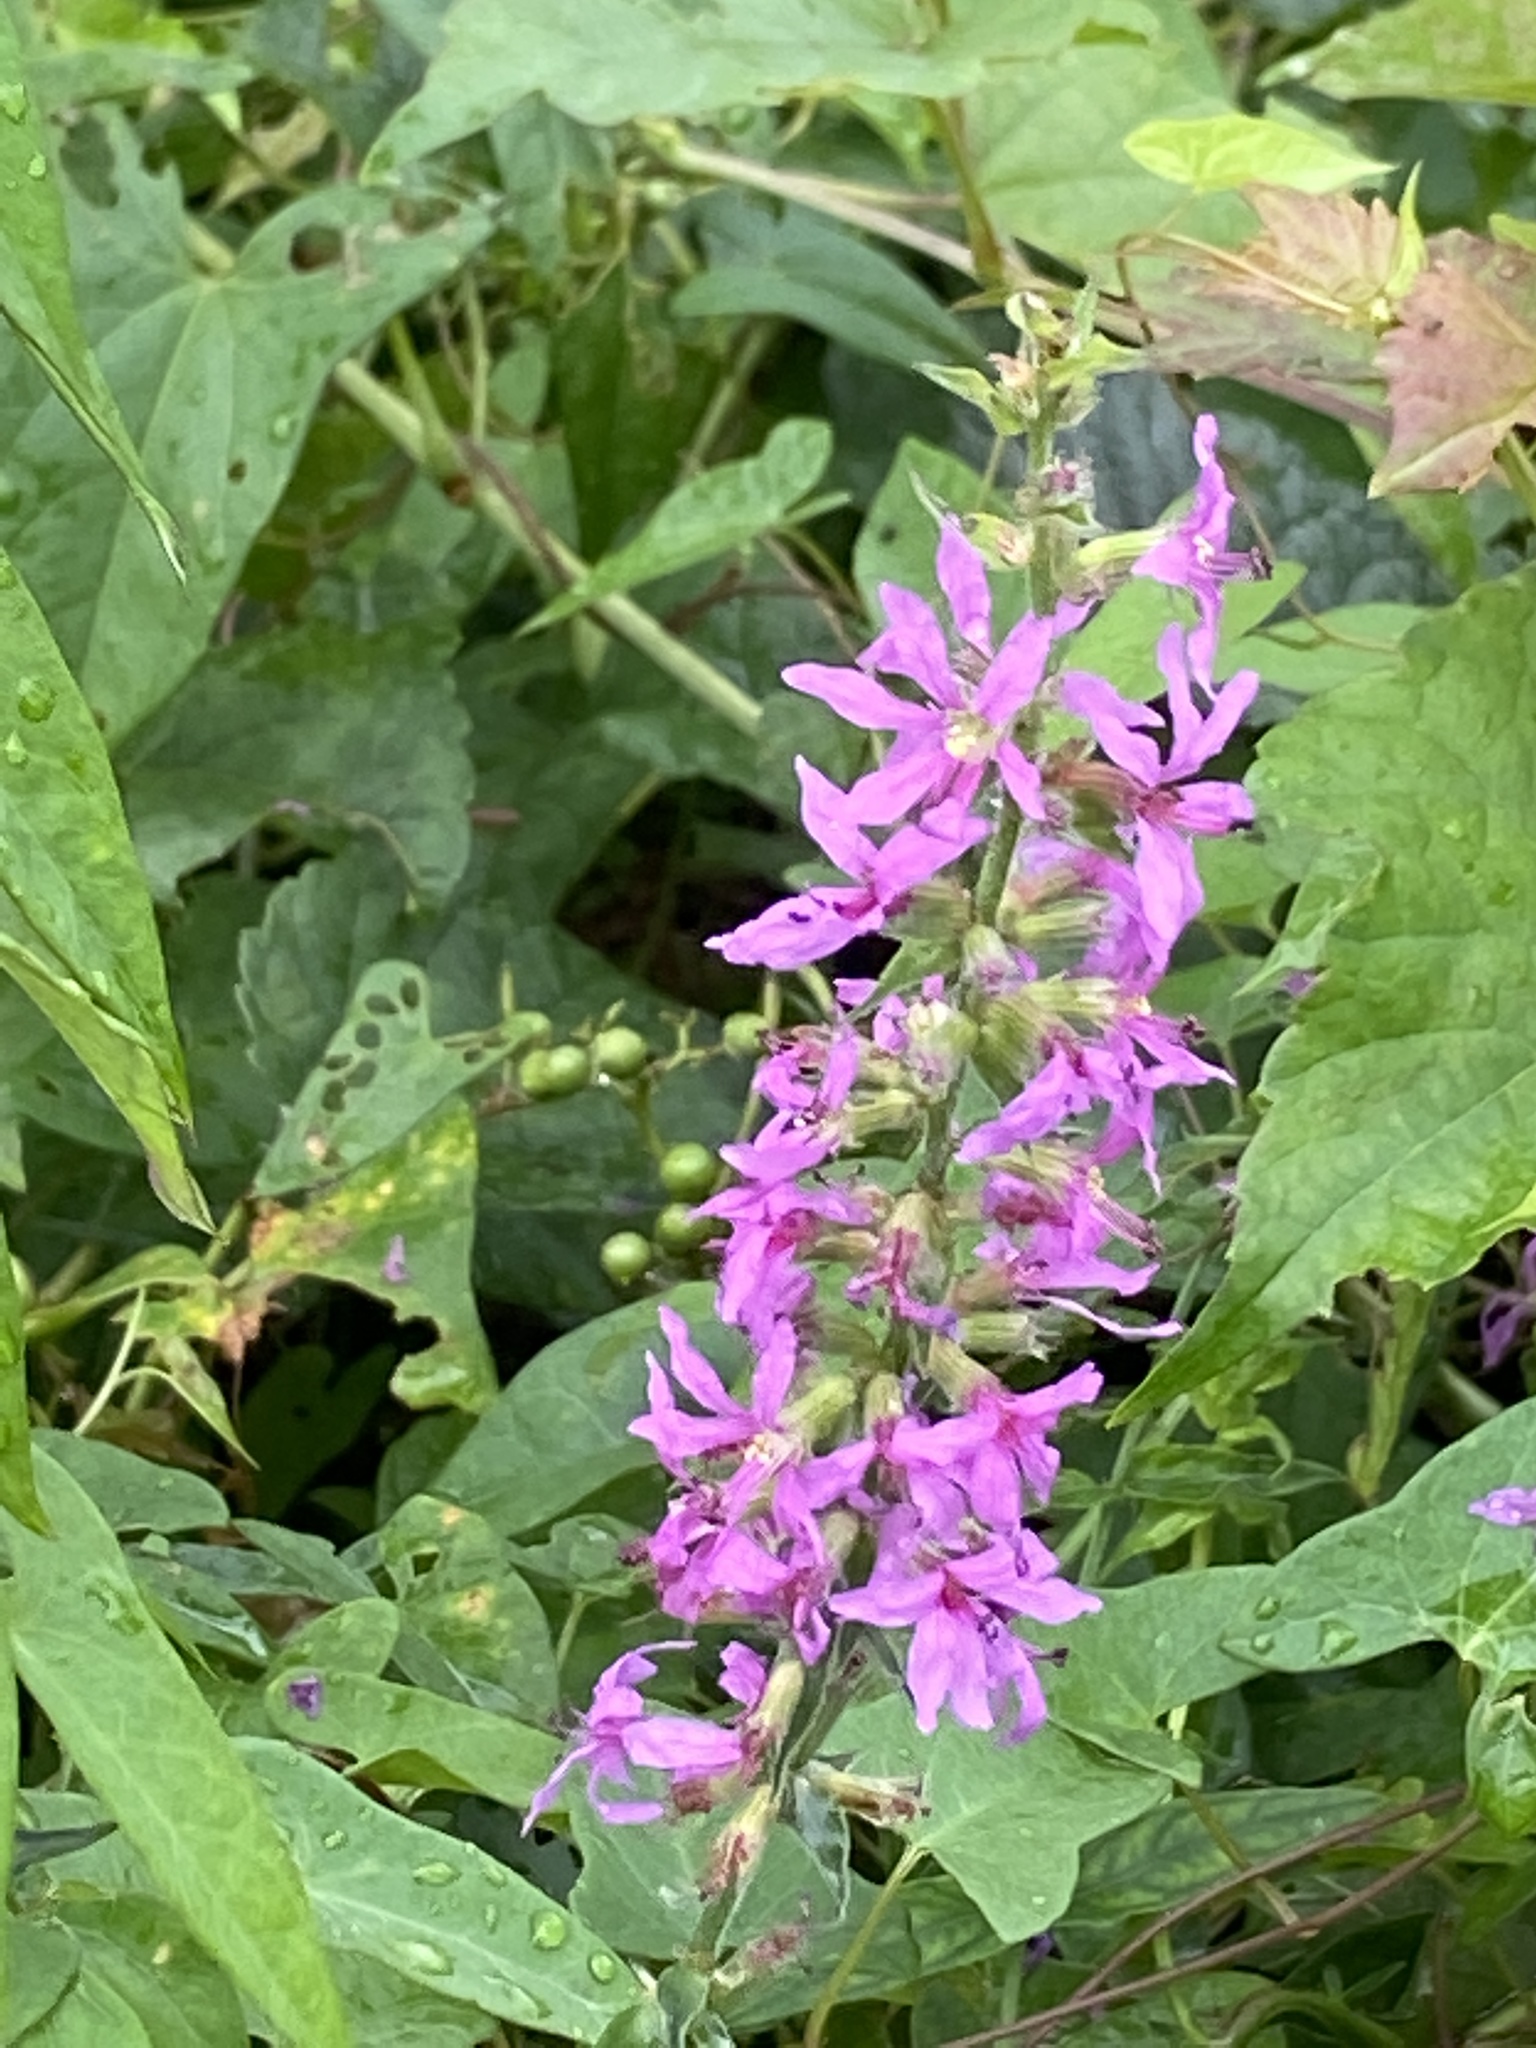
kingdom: Plantae
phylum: Tracheophyta
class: Magnoliopsida
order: Myrtales
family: Lythraceae
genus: Lythrum
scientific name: Lythrum salicaria
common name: Purple loosestrife
